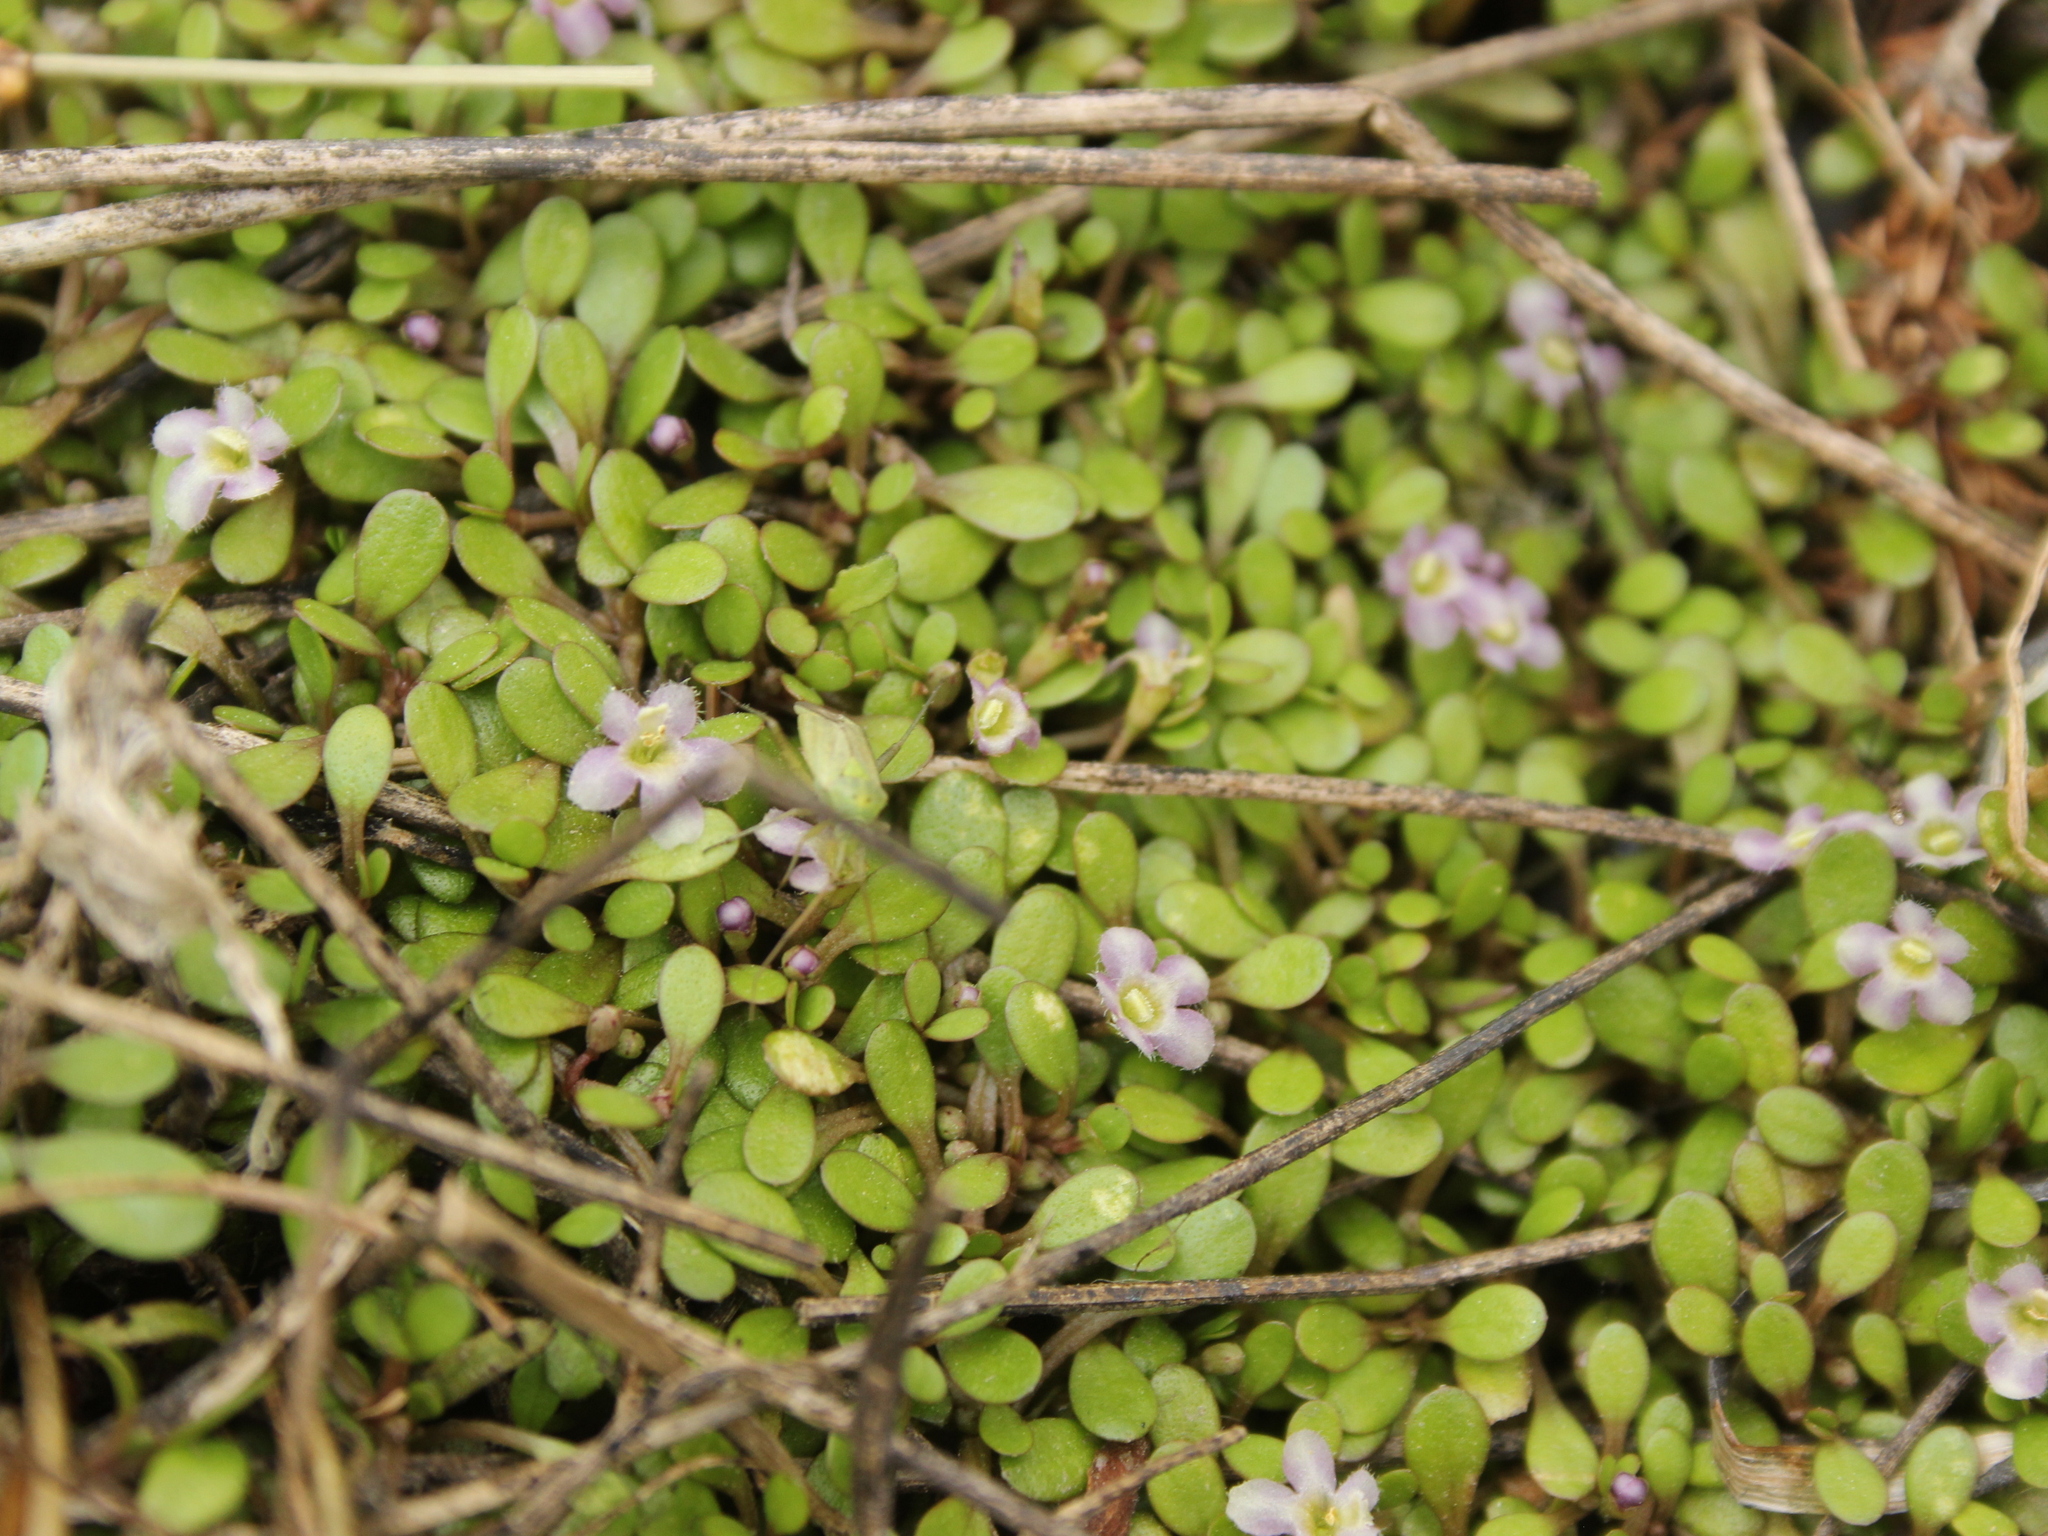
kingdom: Plantae
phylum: Tracheophyta
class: Magnoliopsida
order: Lamiales
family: Phrymaceae
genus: Glossostigma
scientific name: Glossostigma elatinoides
